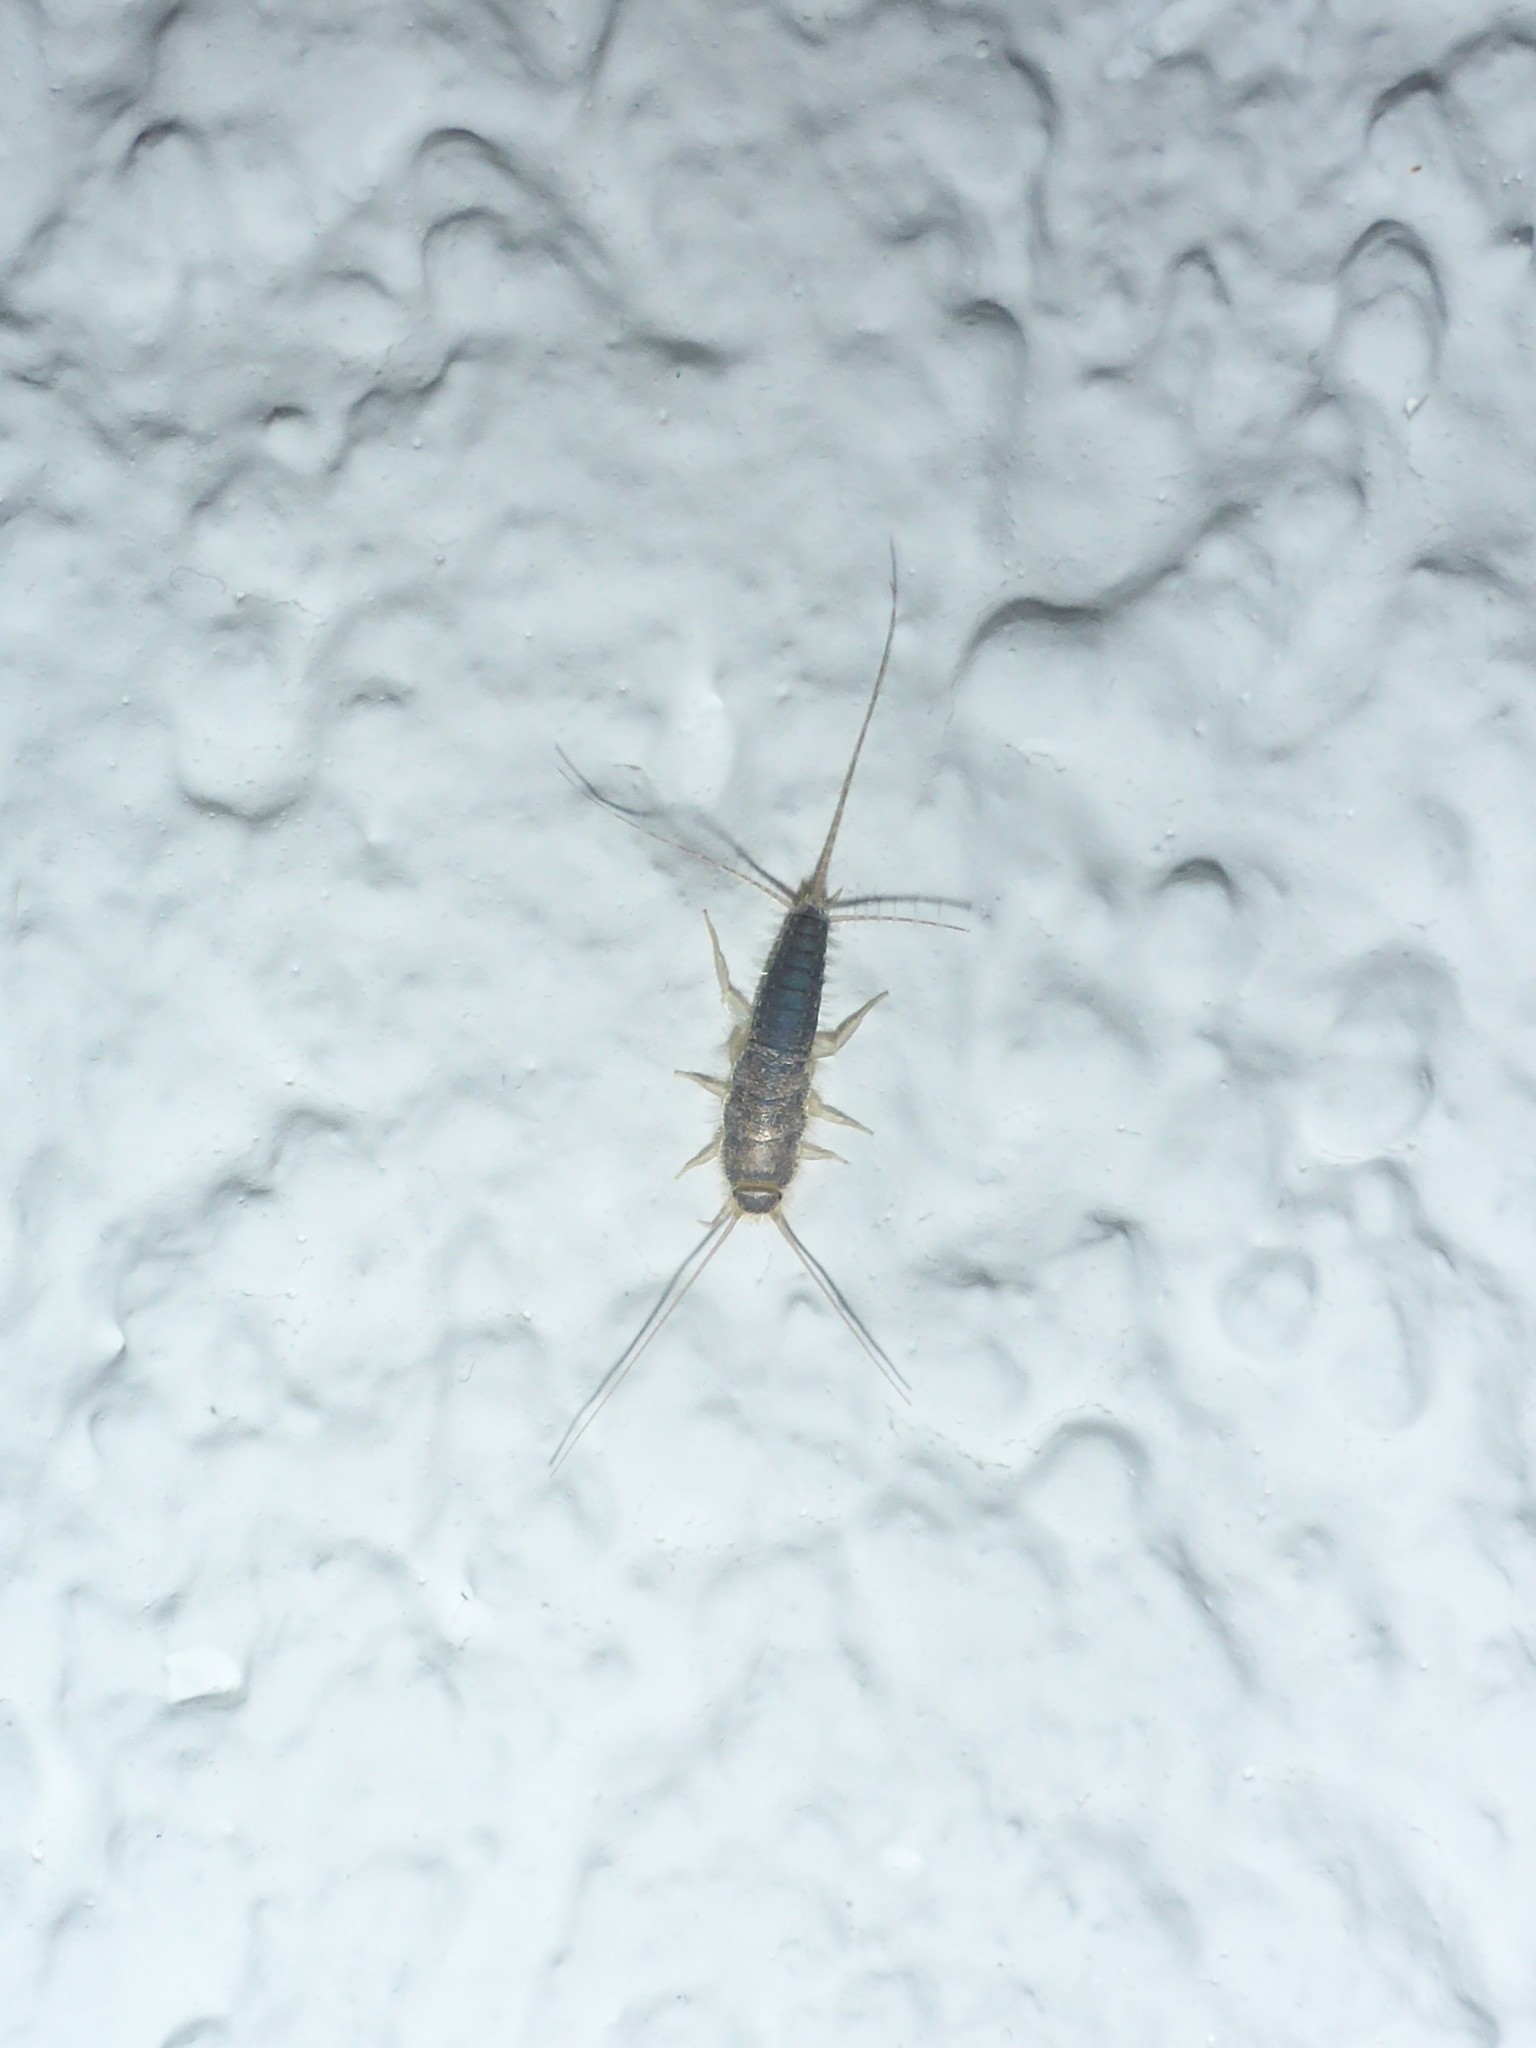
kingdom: Animalia
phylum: Arthropoda
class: Insecta
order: Zygentoma
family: Lepismatidae
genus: Ctenolepisma
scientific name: Ctenolepisma longicaudatum
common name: Silverfish
